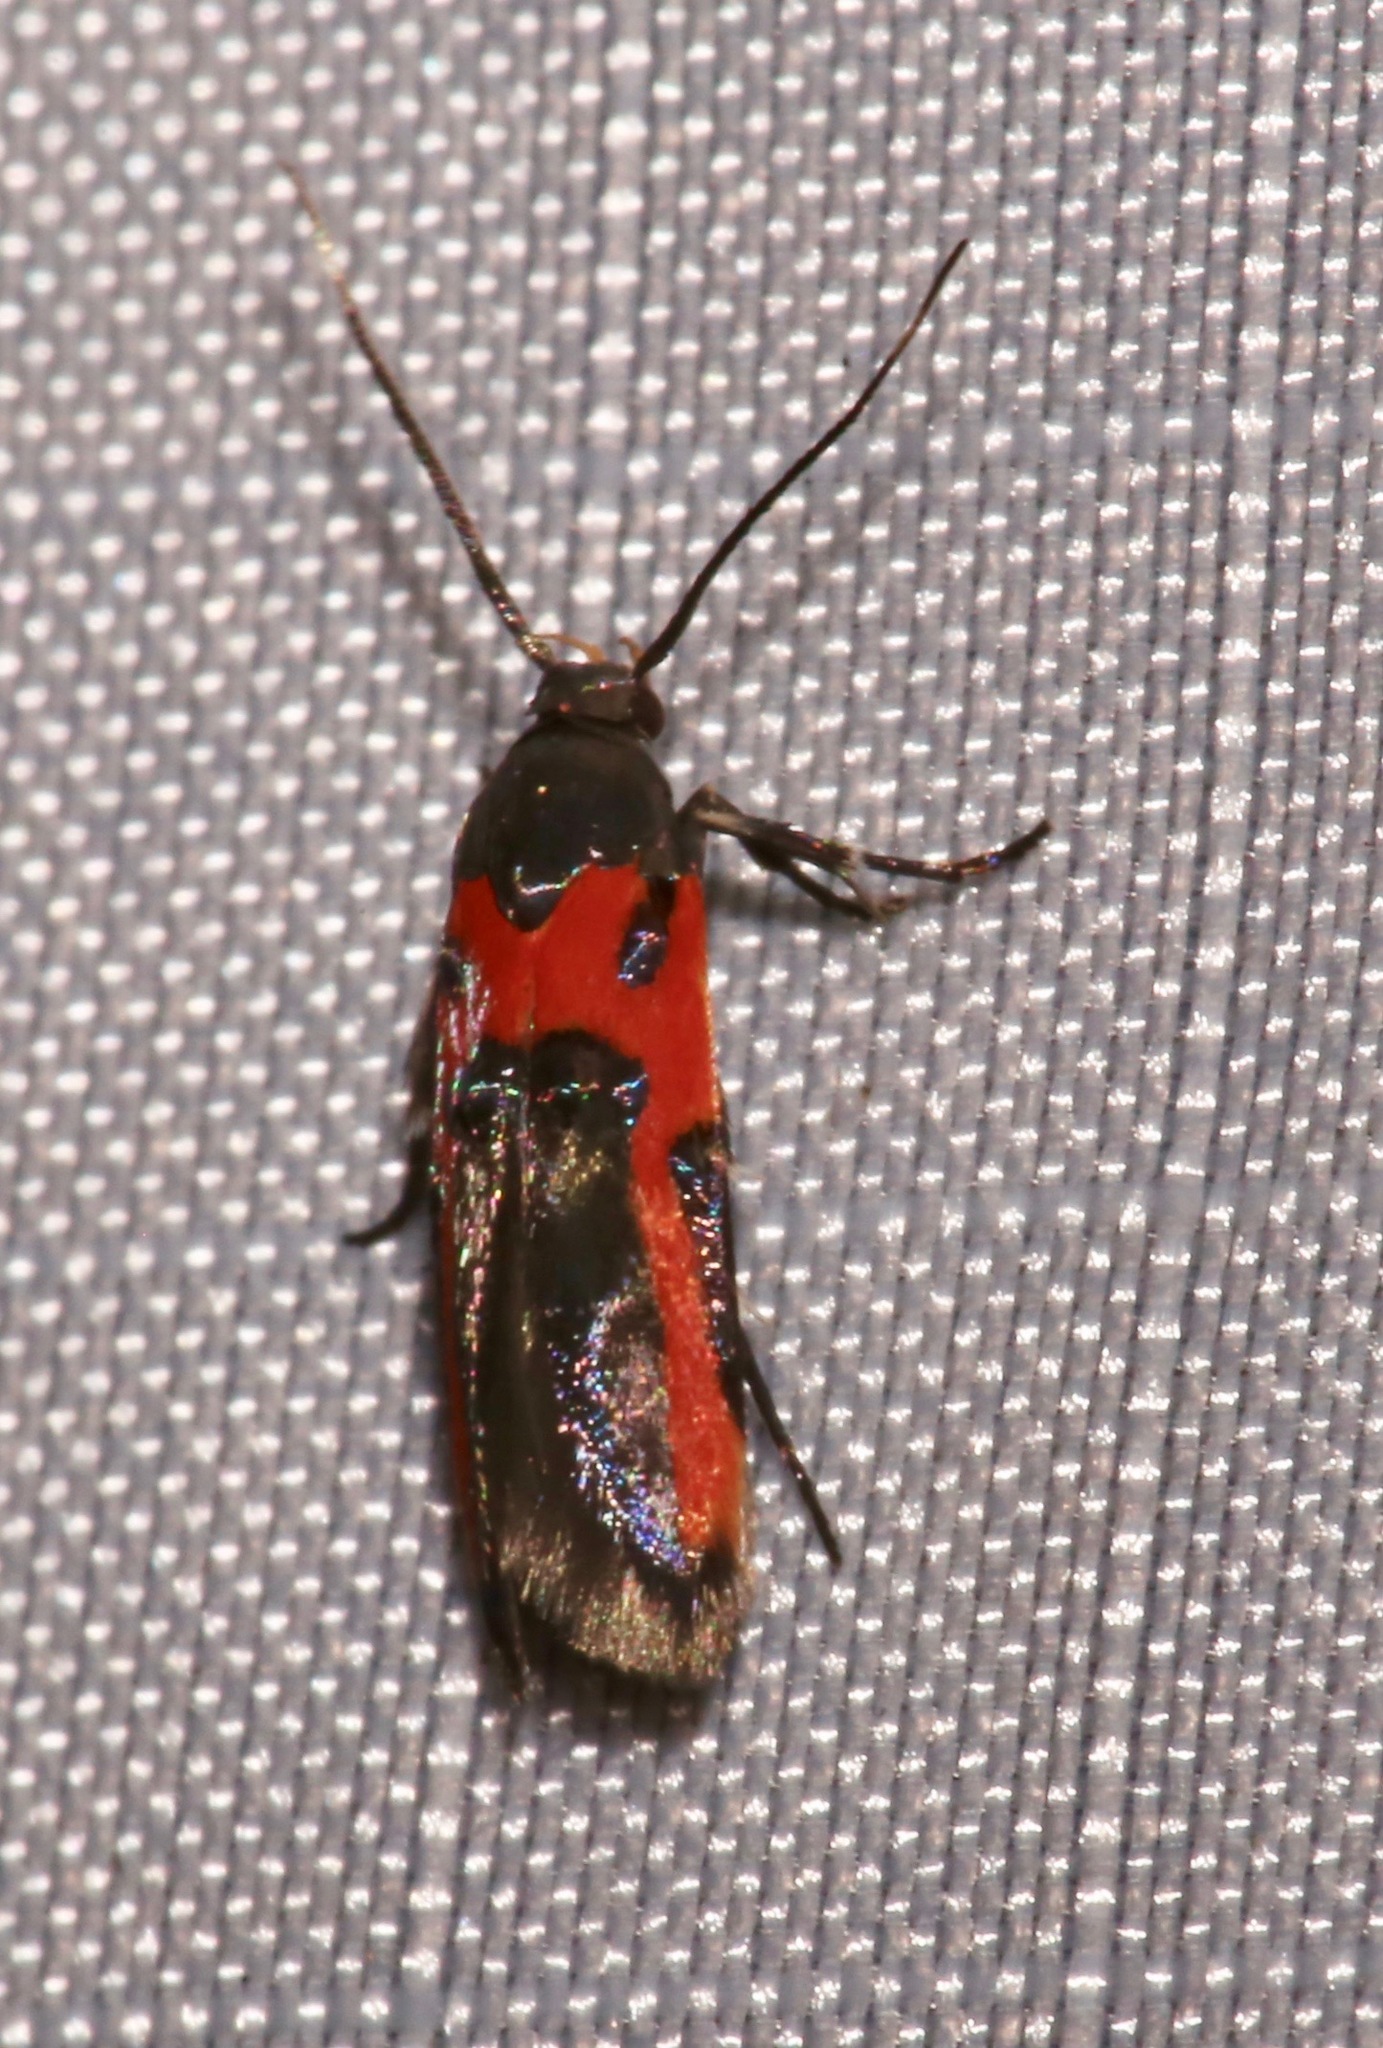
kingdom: Animalia
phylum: Arthropoda
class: Insecta
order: Lepidoptera
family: Cosmopterigidae
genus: Euclemensia
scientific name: Euclemensia bassettella
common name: Kermes scale moth
